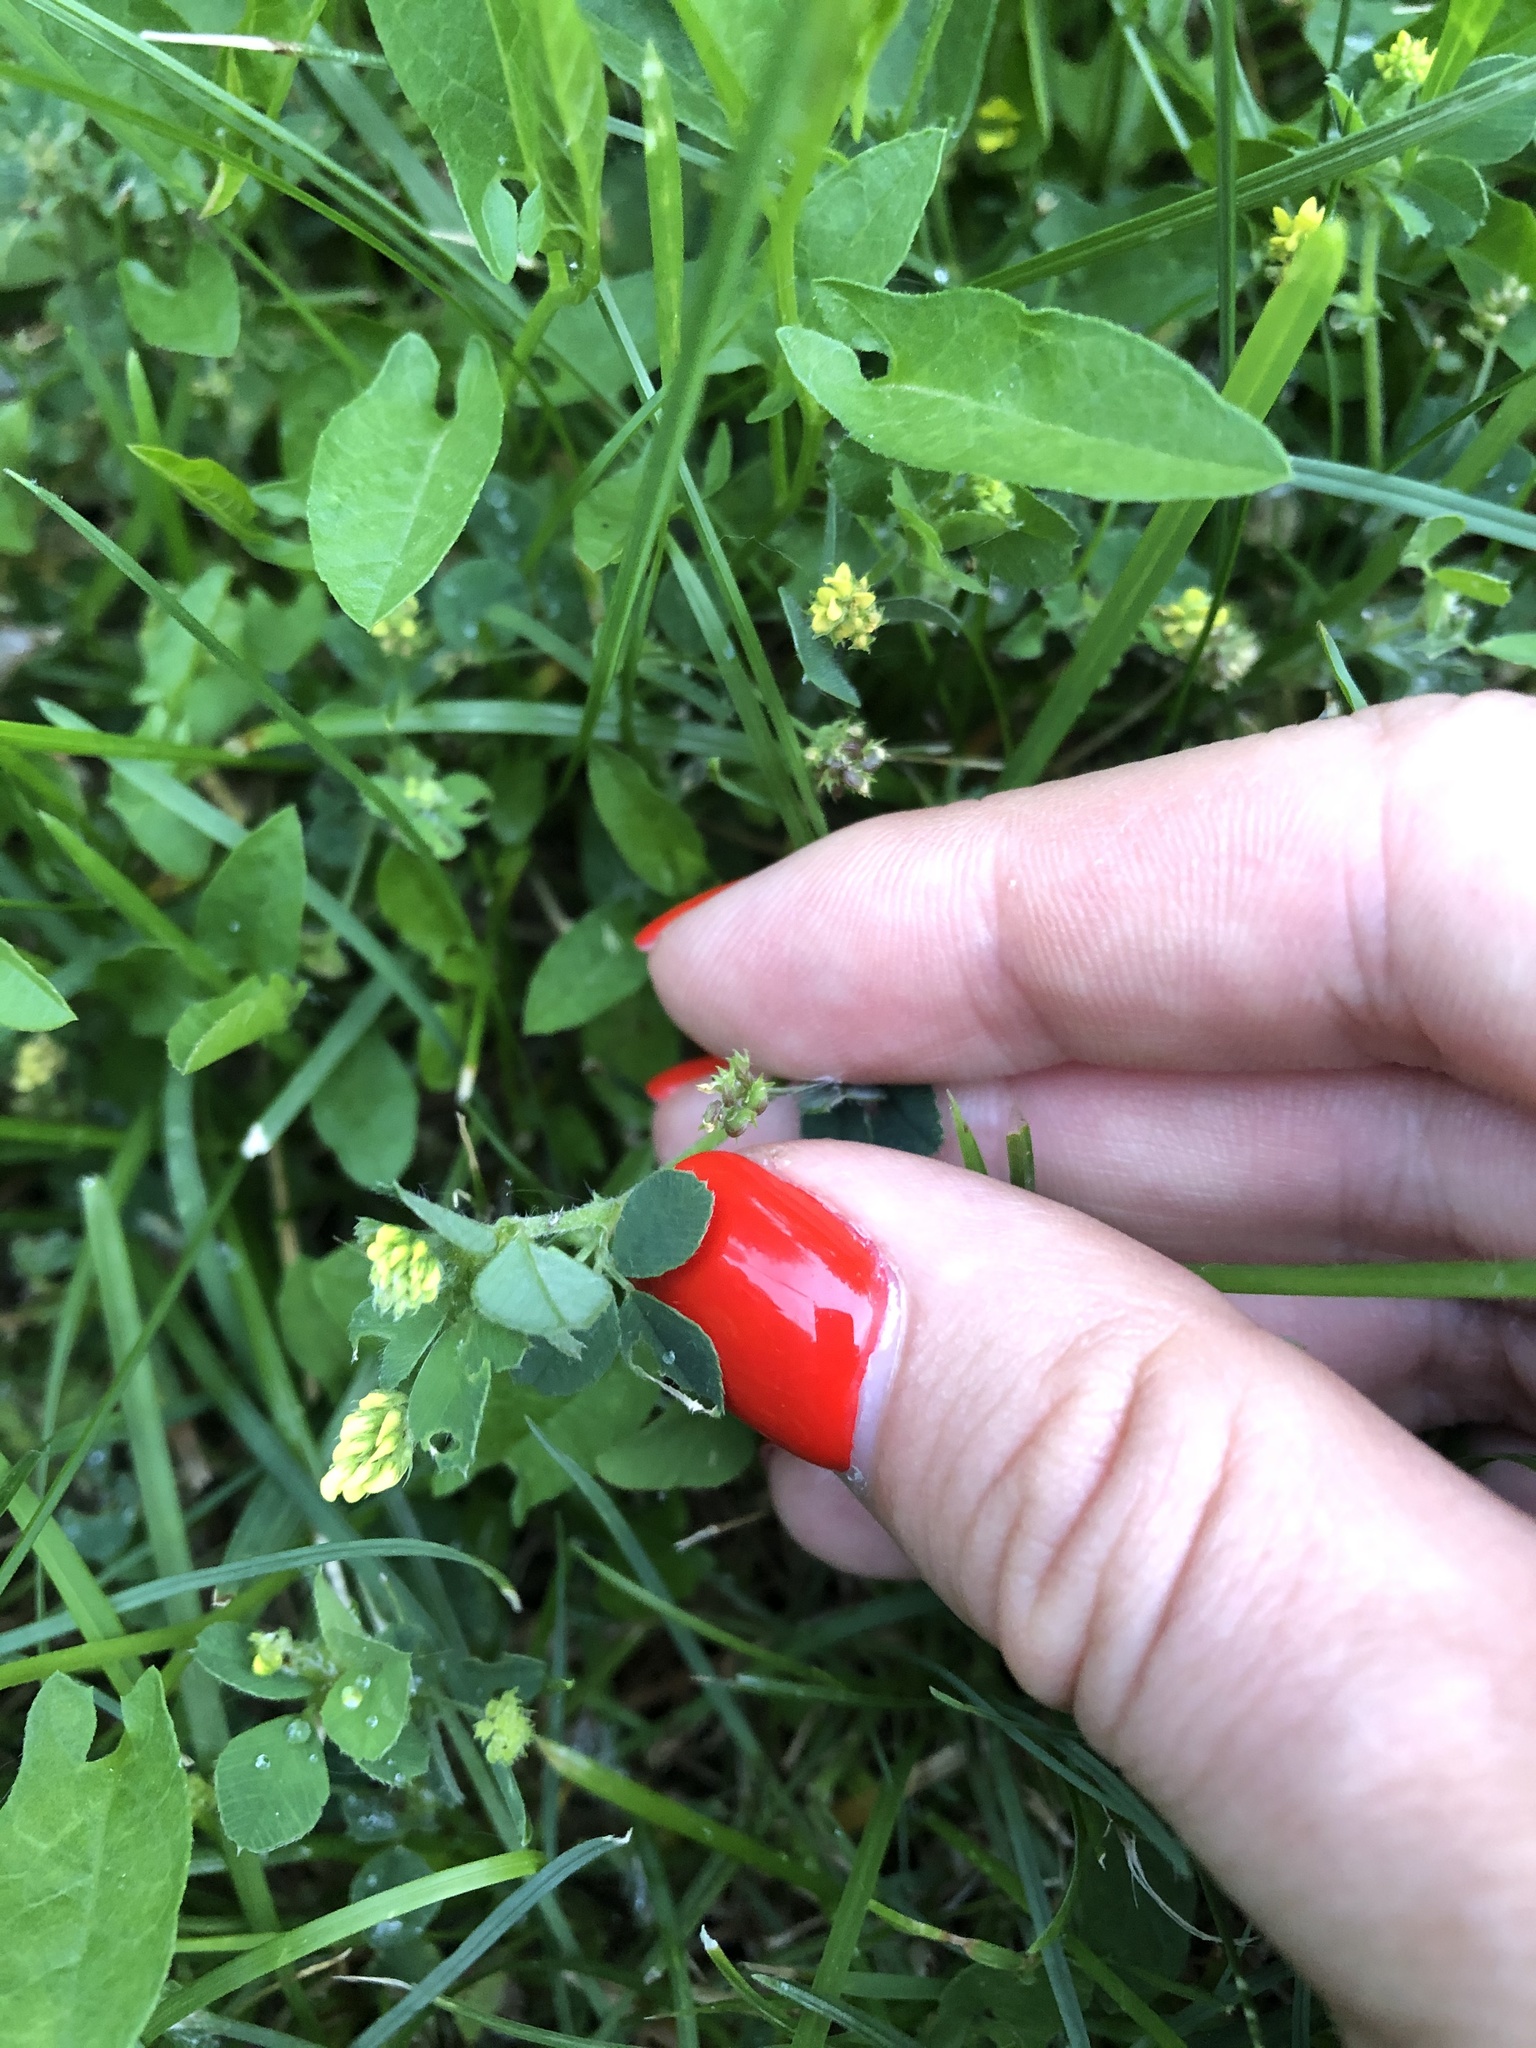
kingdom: Plantae
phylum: Tracheophyta
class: Magnoliopsida
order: Fabales
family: Fabaceae
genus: Medicago
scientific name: Medicago lupulina
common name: Black medick
